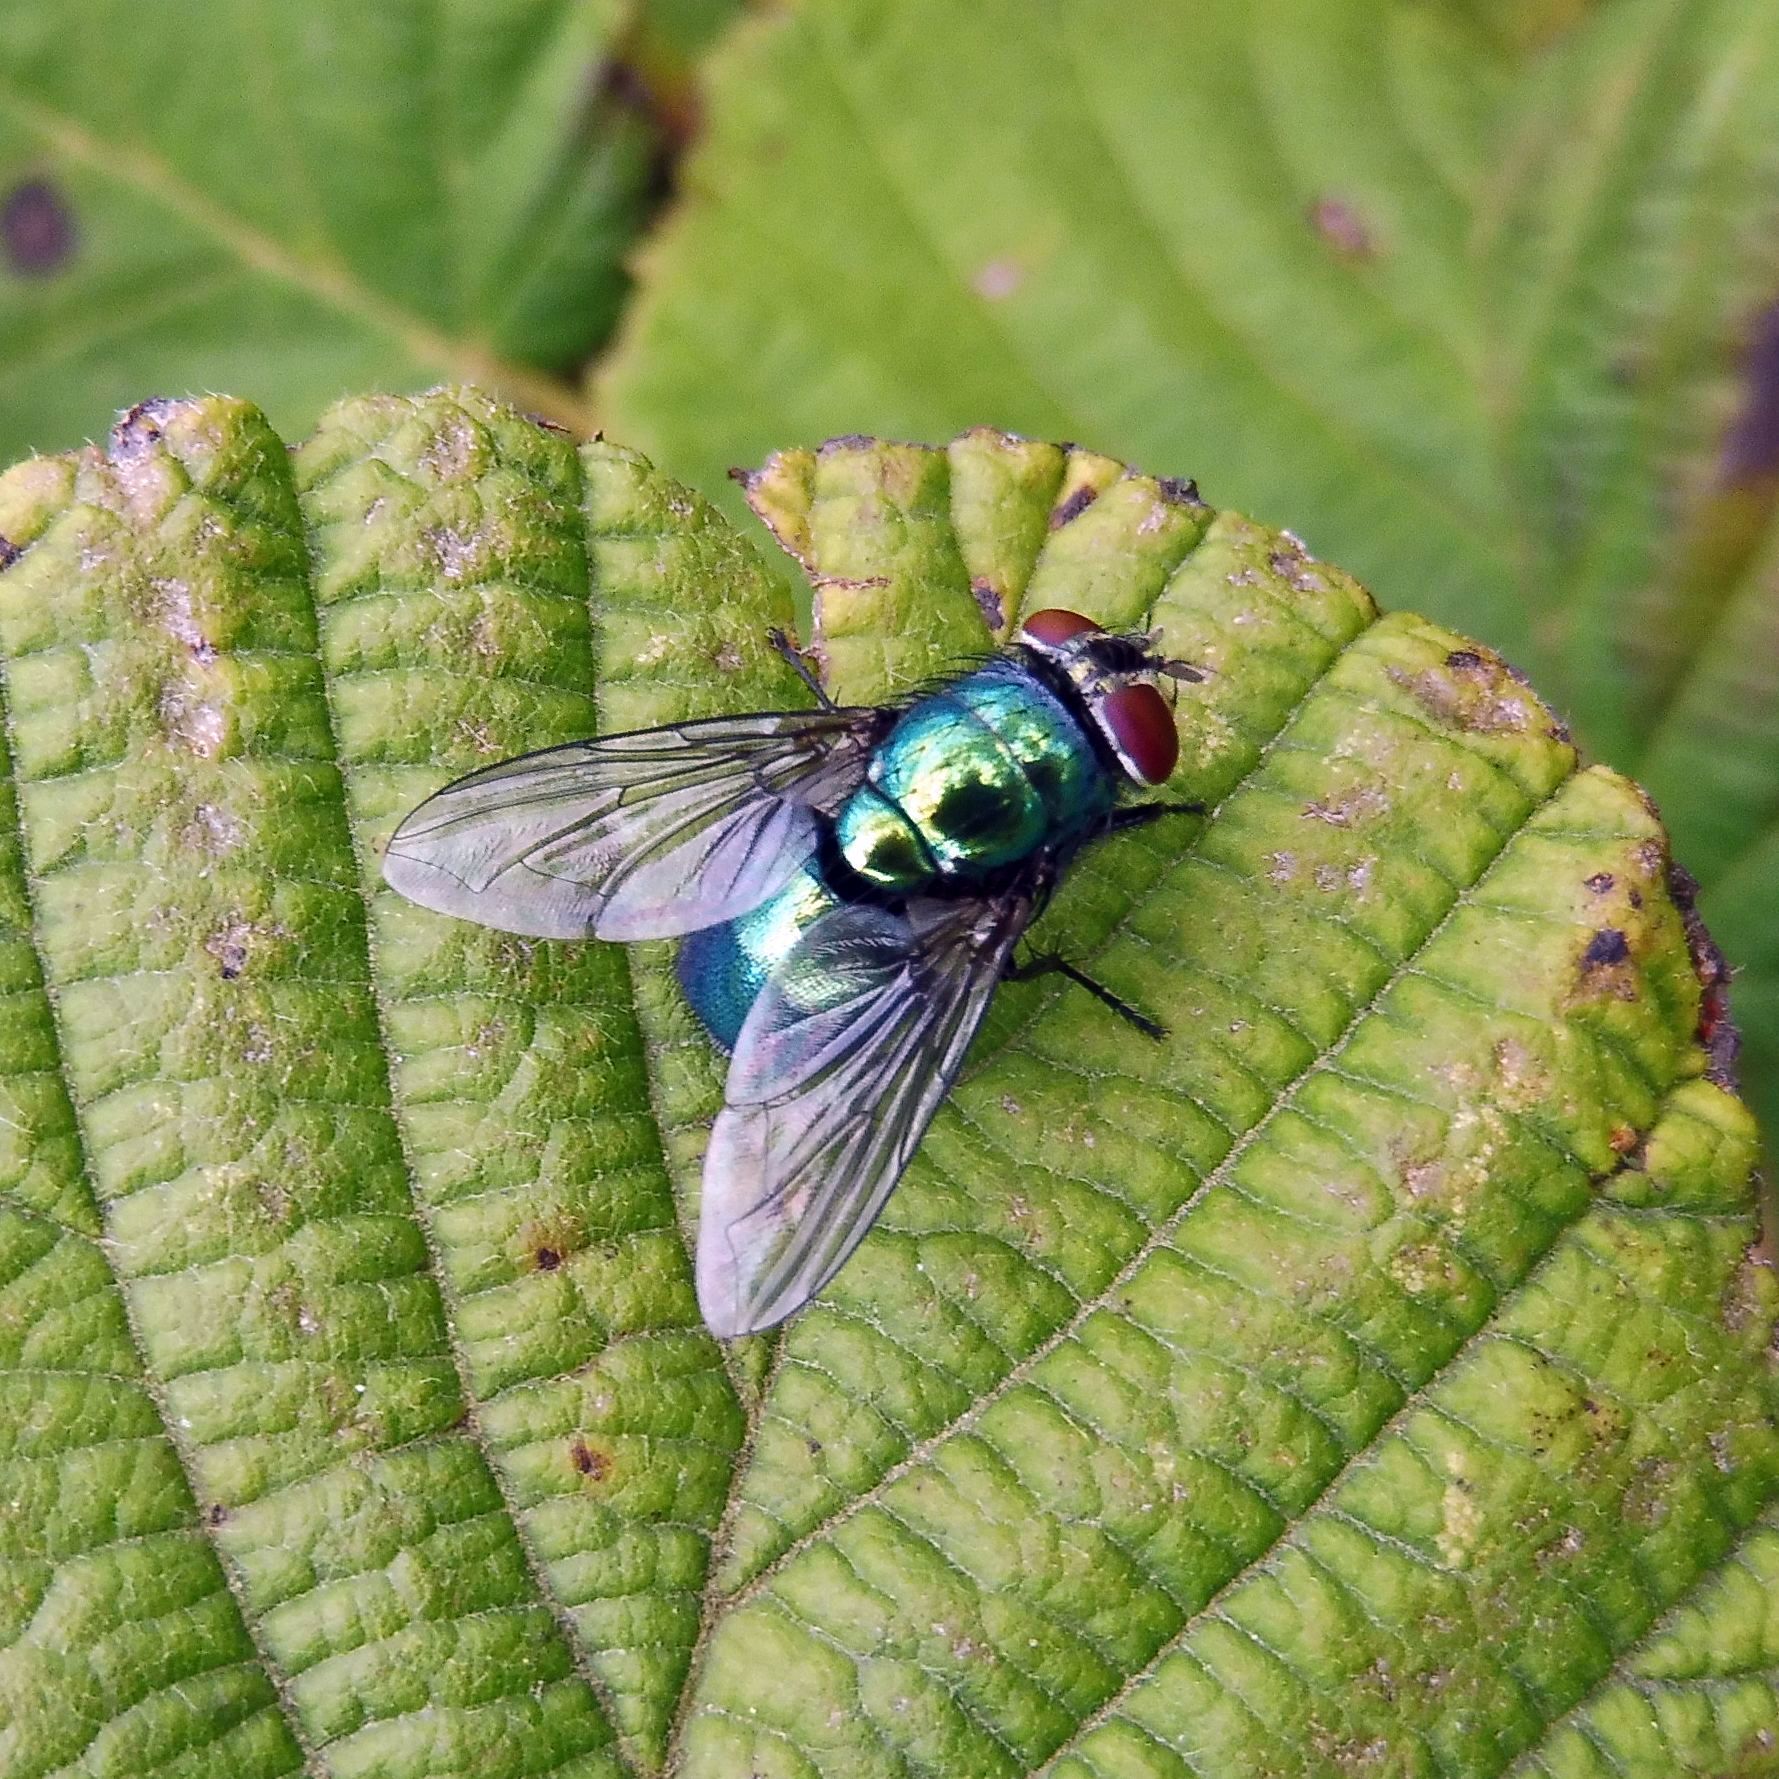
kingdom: Animalia
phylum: Arthropoda
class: Insecta
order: Diptera
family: Calliphoridae
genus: Lucilia
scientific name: Lucilia
